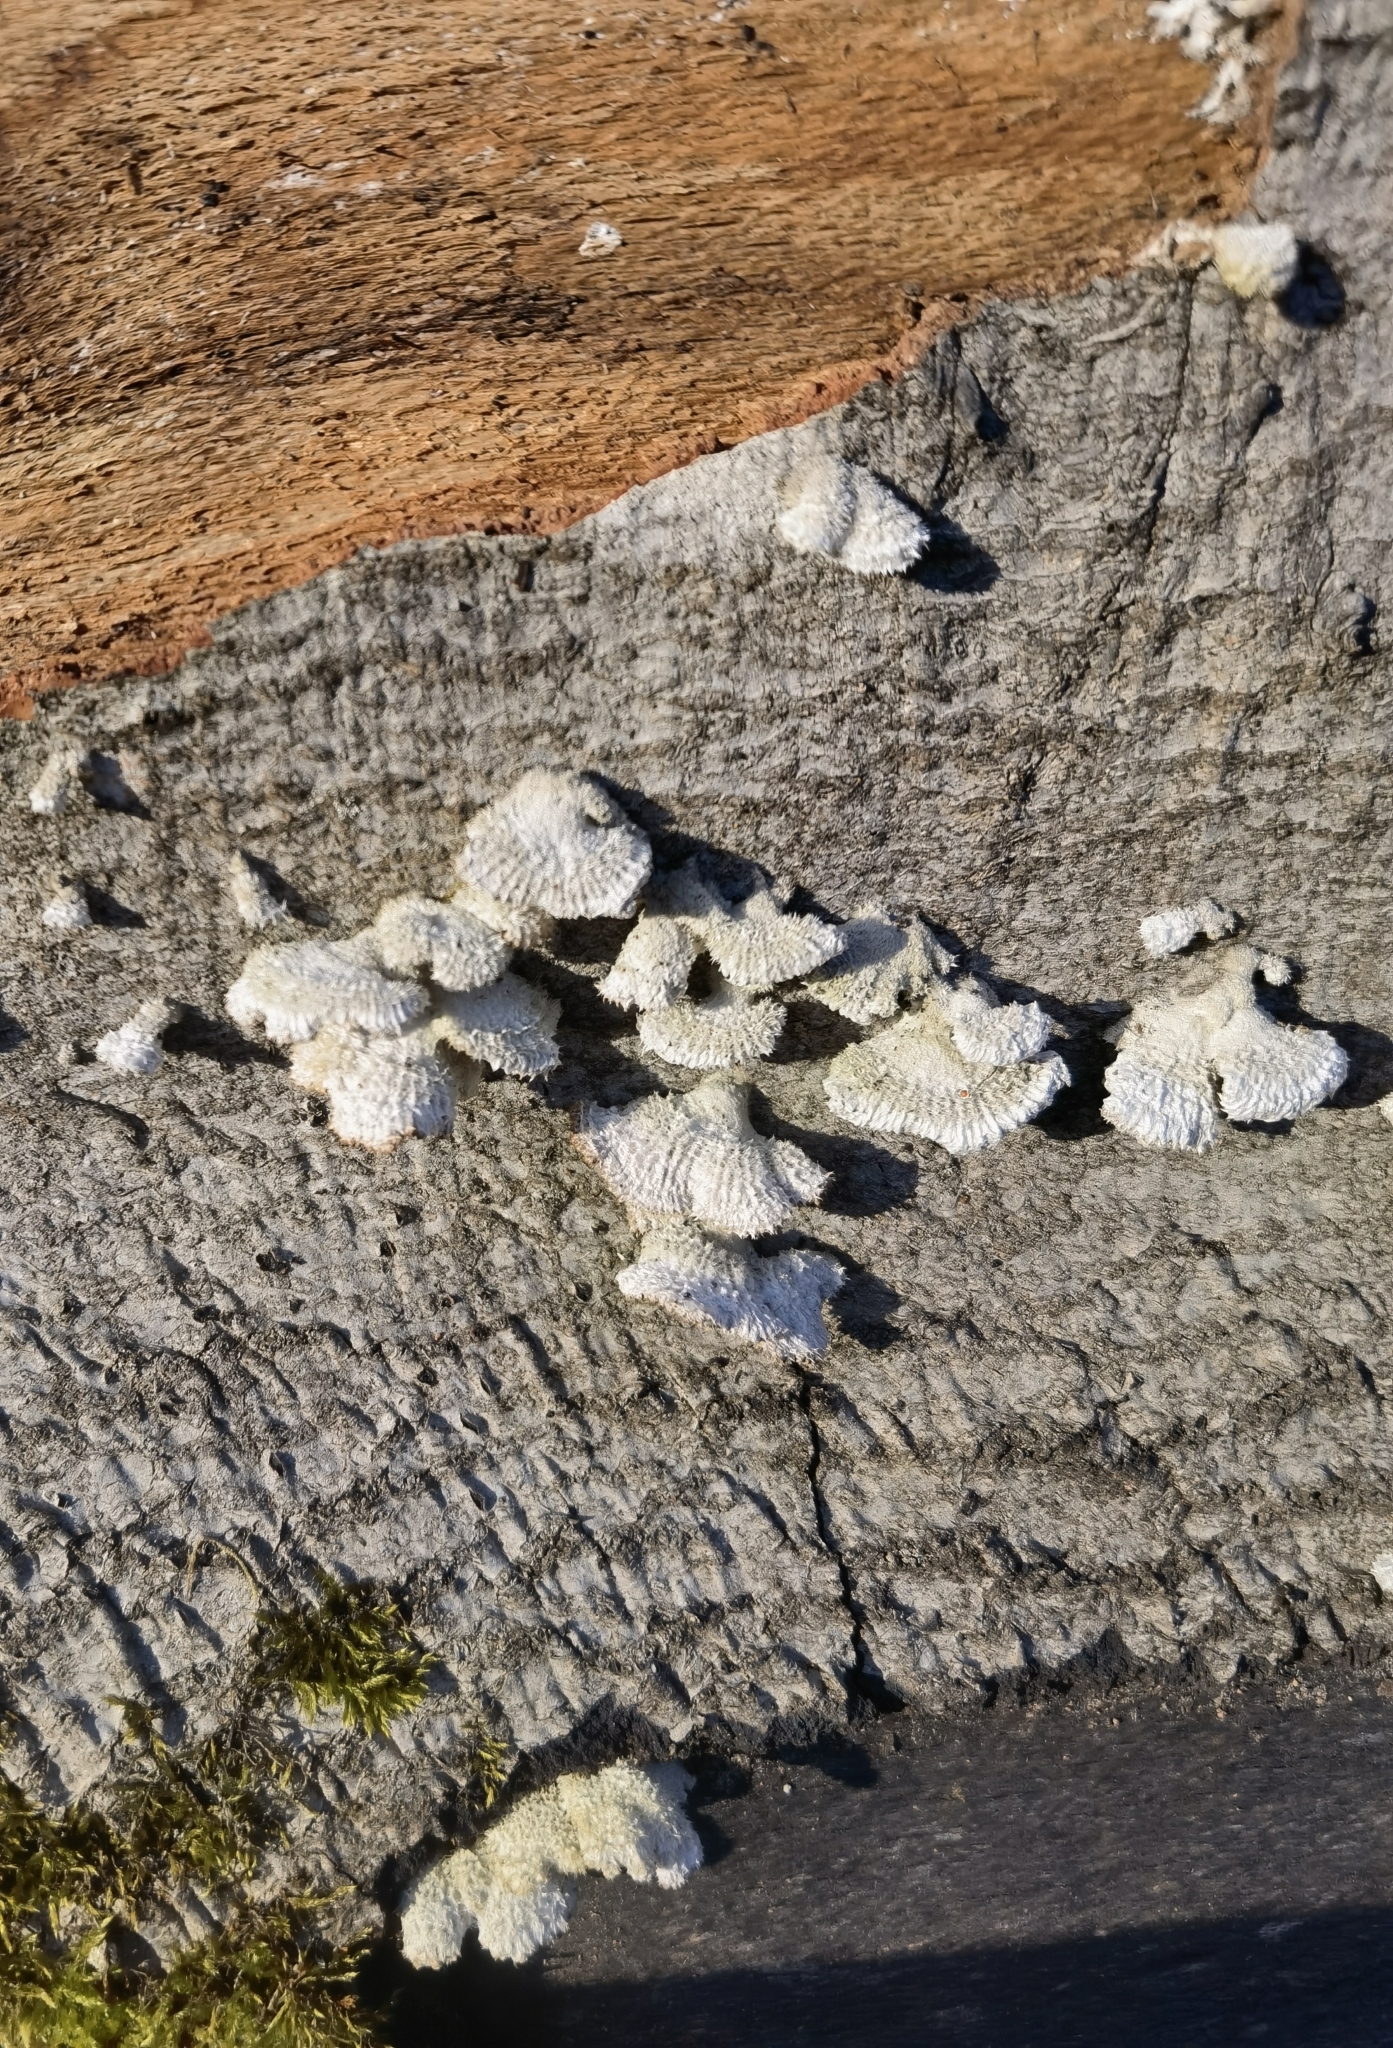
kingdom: Fungi
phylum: Basidiomycota
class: Agaricomycetes
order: Agaricales
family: Schizophyllaceae
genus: Schizophyllum
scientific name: Schizophyllum commune
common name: Common porecrust
